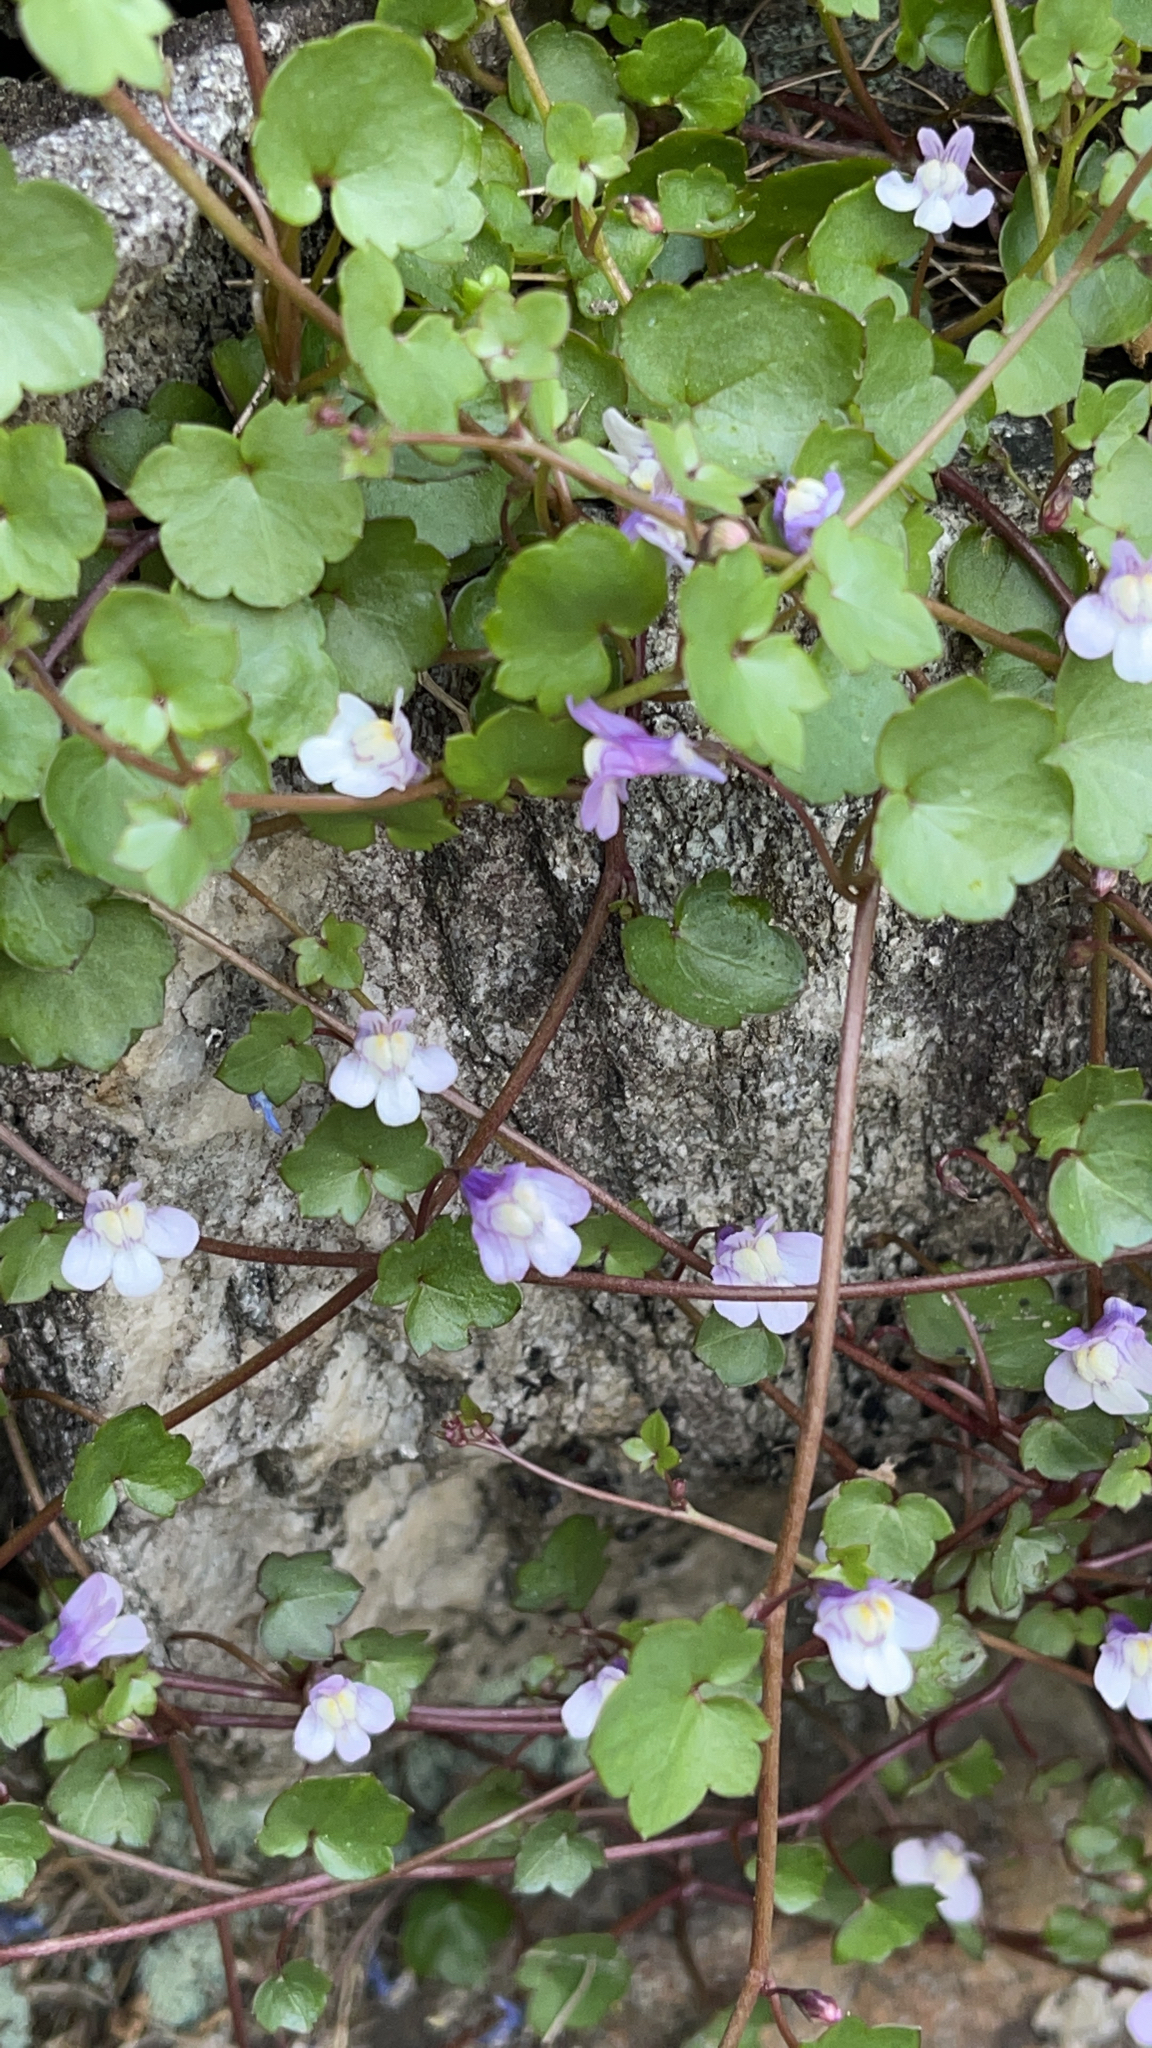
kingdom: Plantae
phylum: Tracheophyta
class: Magnoliopsida
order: Lamiales
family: Plantaginaceae
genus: Cymbalaria
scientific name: Cymbalaria muralis
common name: Ivy-leaved toadflax
